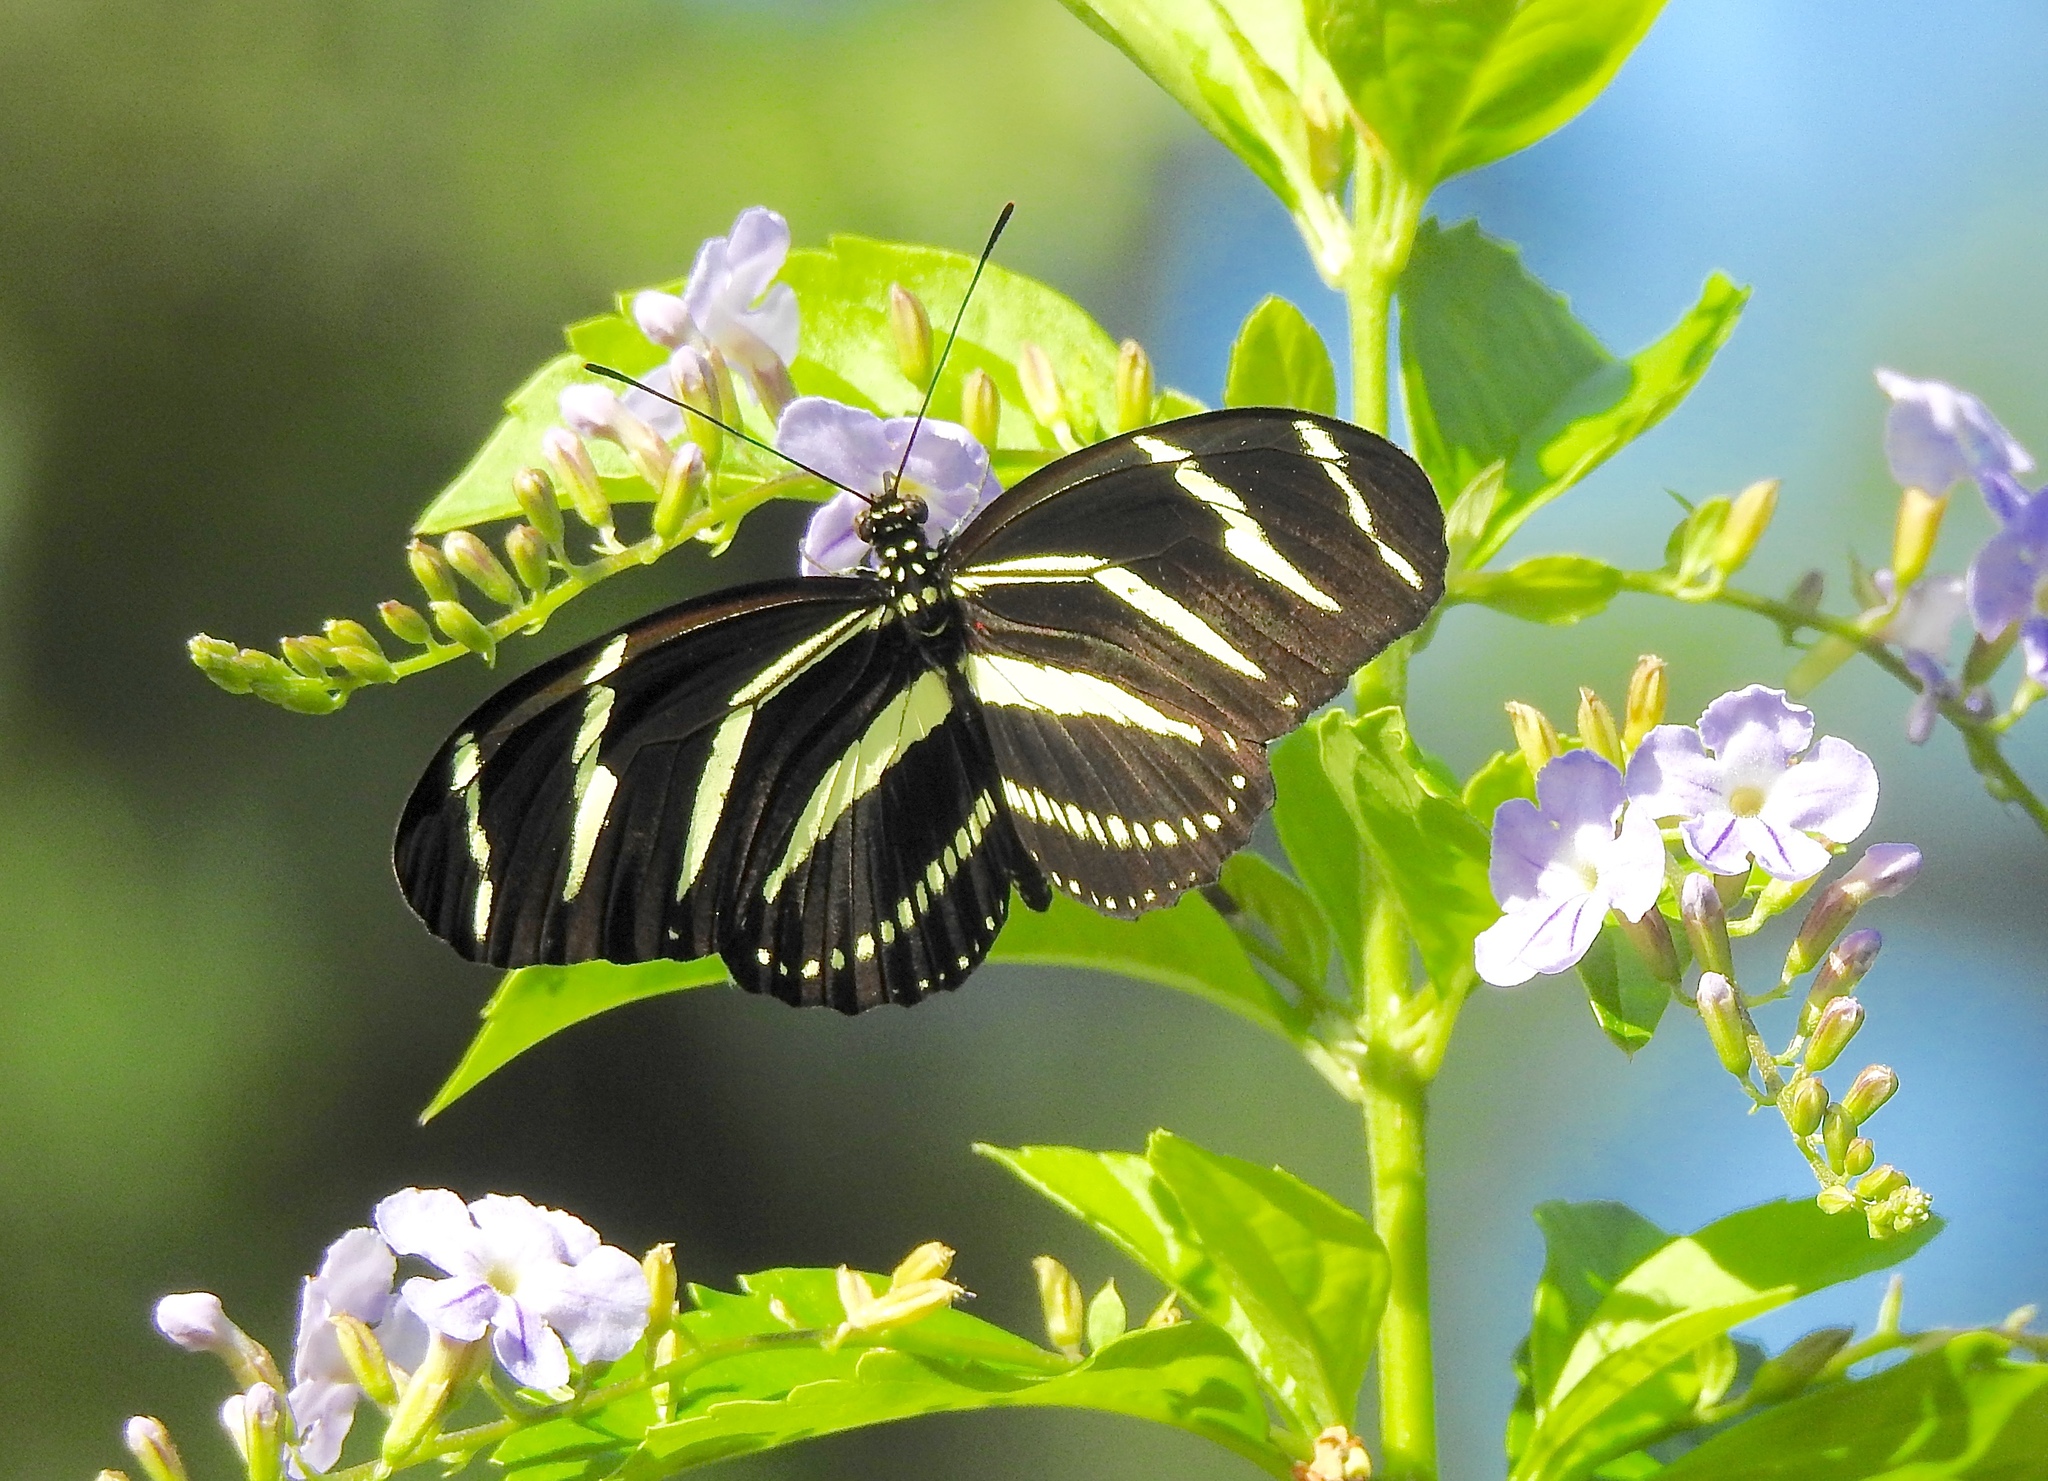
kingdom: Animalia
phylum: Arthropoda
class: Insecta
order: Lepidoptera
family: Nymphalidae
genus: Heliconius
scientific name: Heliconius charithonia
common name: Zebra long wing
